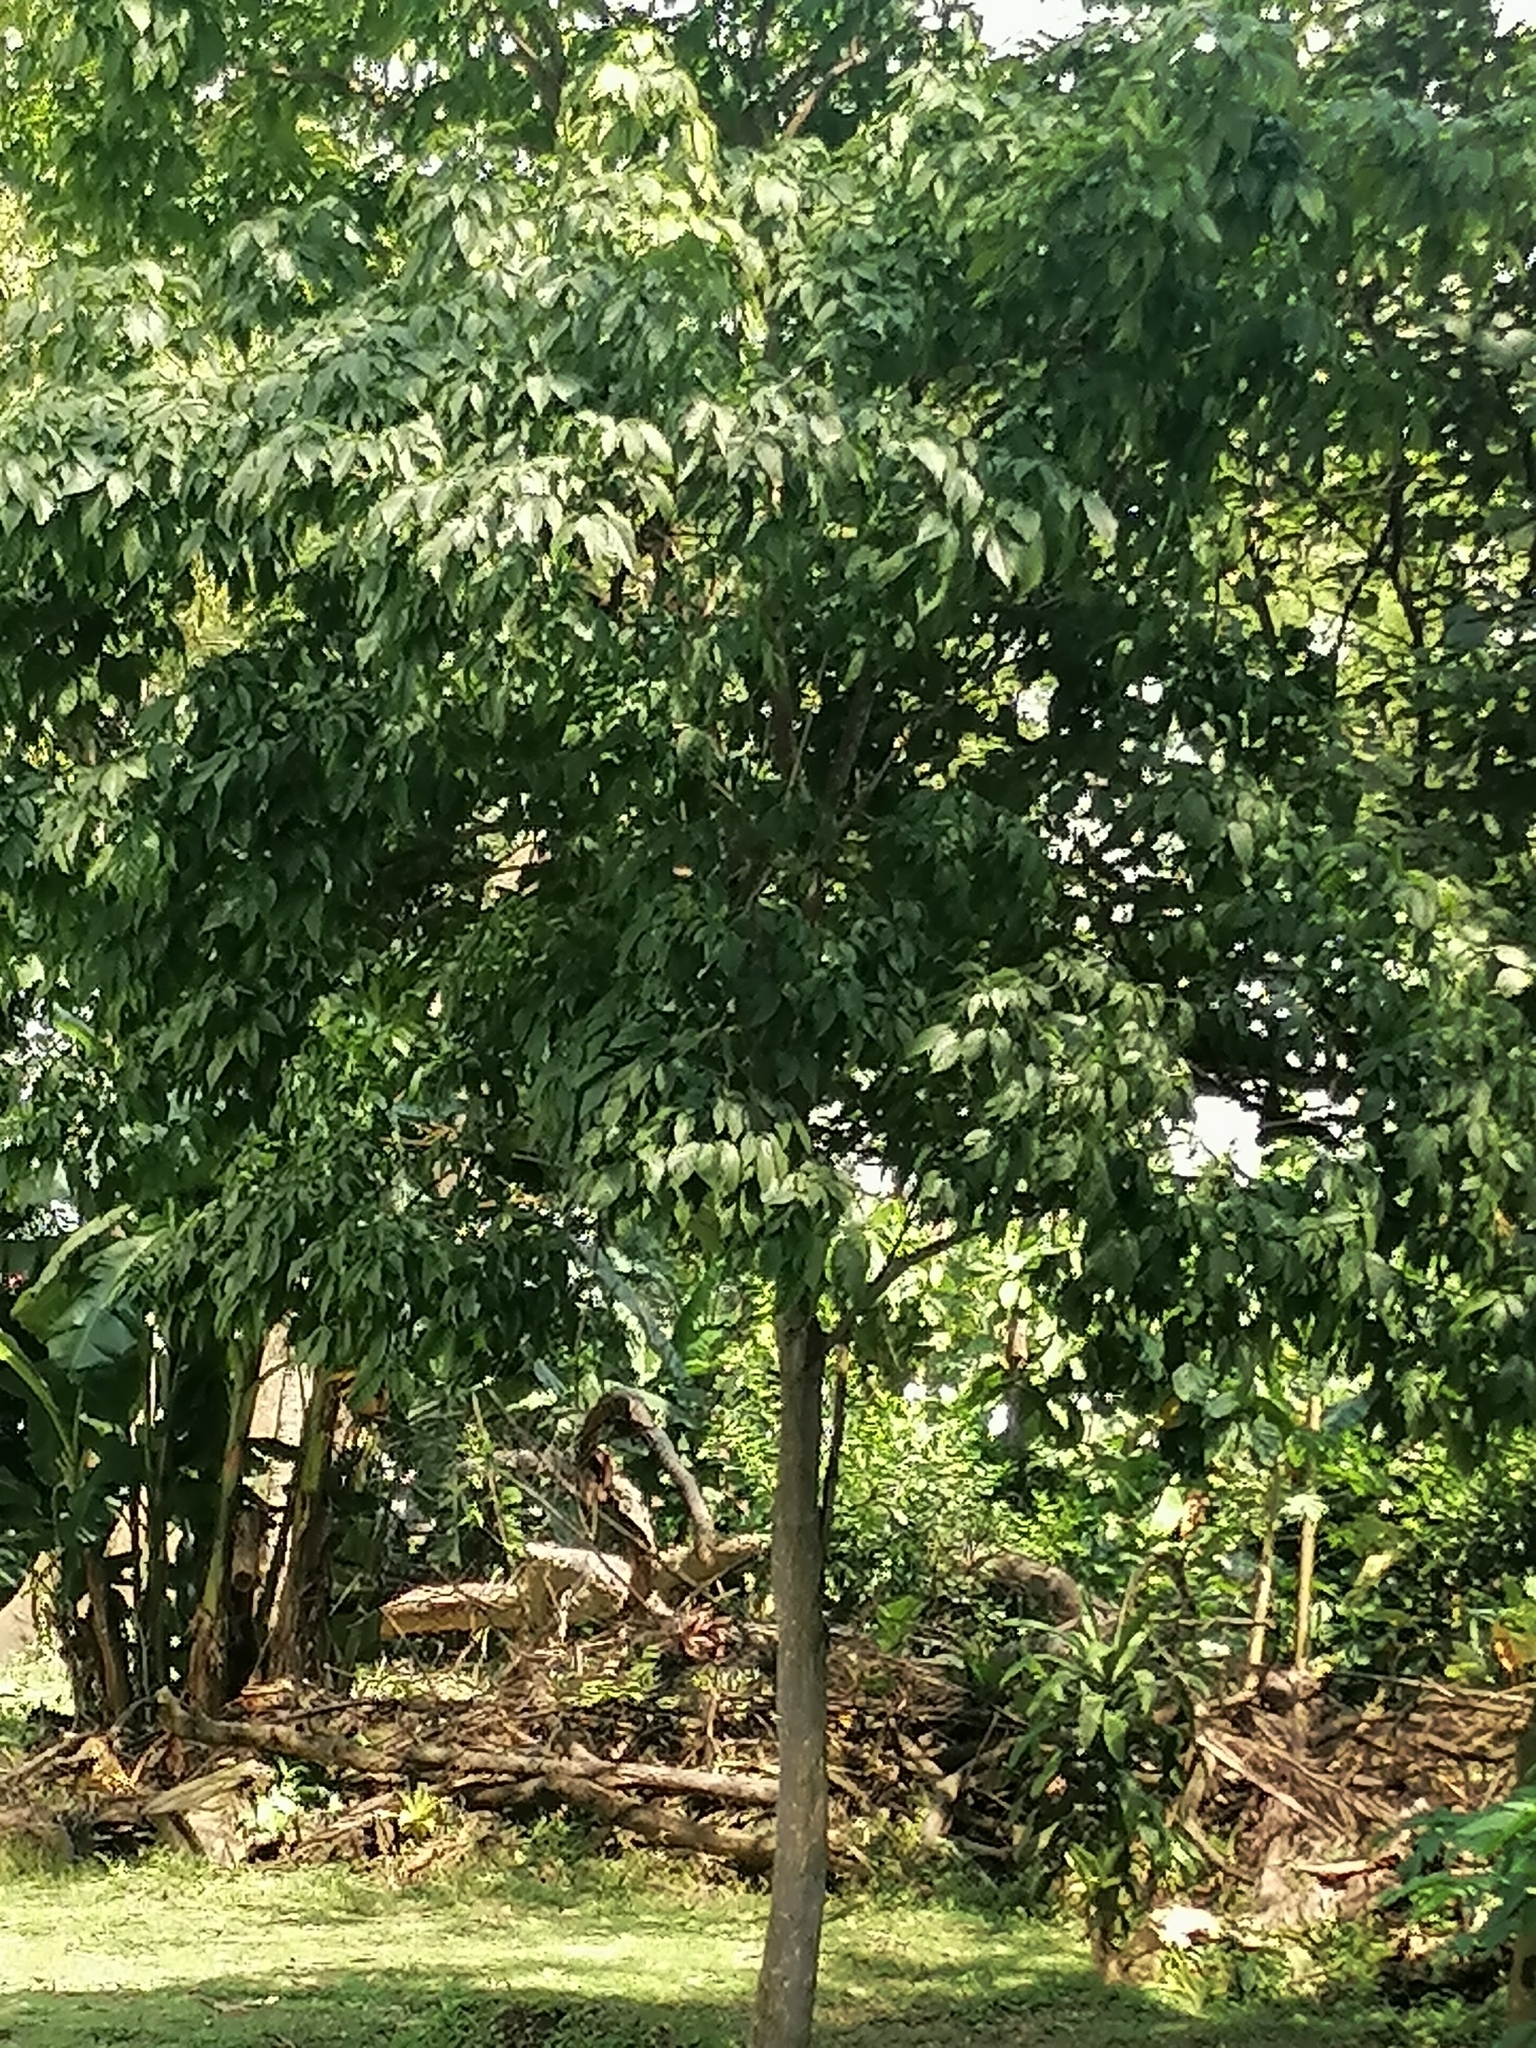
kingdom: Plantae
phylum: Tracheophyta
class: Magnoliopsida
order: Lamiales
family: Bignoniaceae
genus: Handroanthus
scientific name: Handroanthus guayacan
